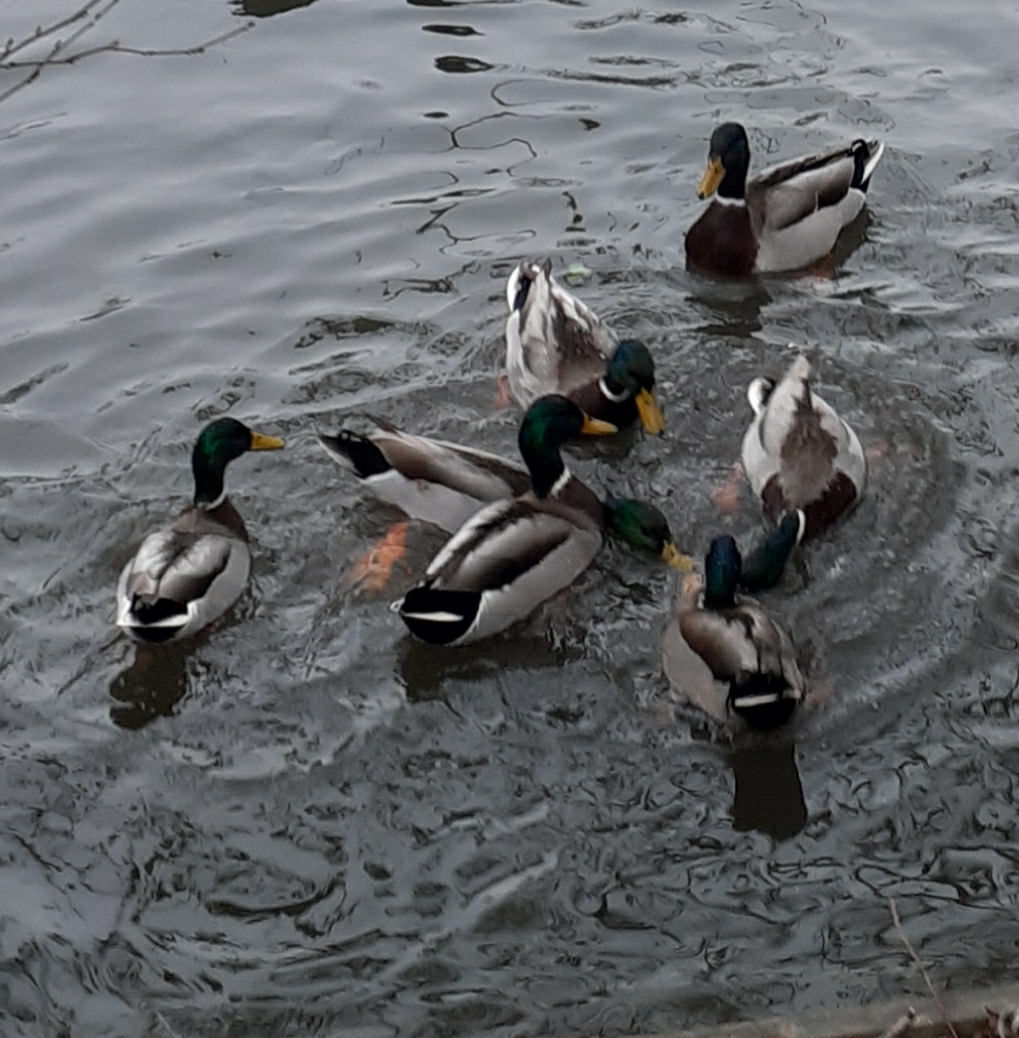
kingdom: Animalia
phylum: Chordata
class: Aves
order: Anseriformes
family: Anatidae
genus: Anas
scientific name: Anas platyrhynchos
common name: Mallard
